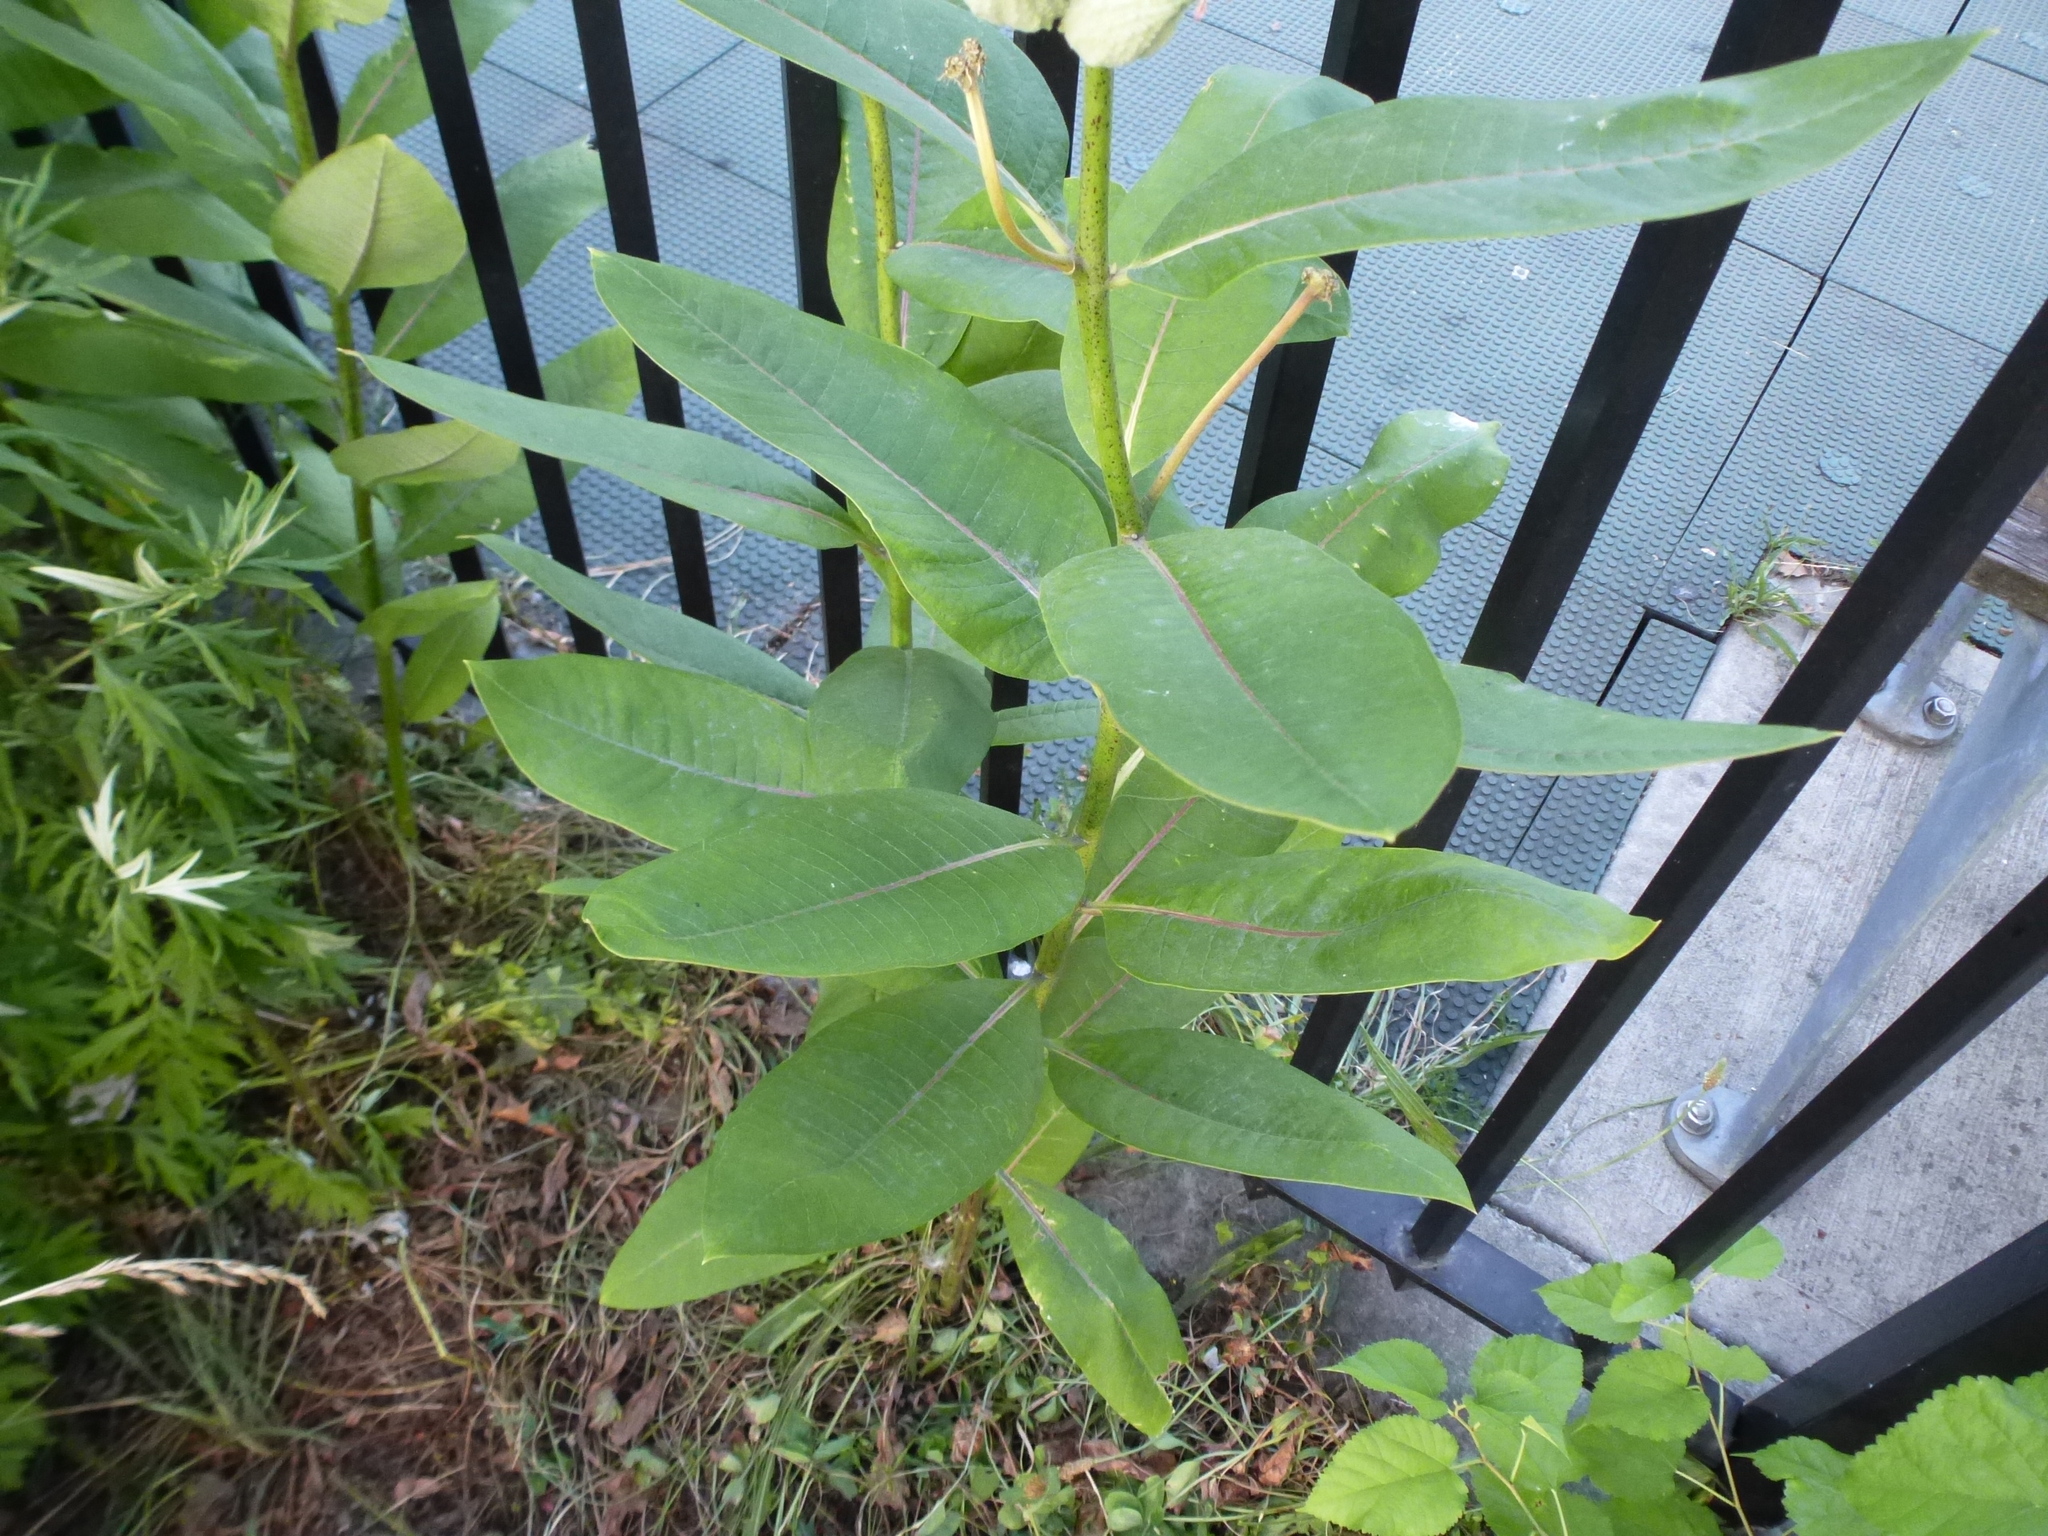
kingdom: Plantae
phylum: Tracheophyta
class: Magnoliopsida
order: Gentianales
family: Apocynaceae
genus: Asclepias
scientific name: Asclepias syriaca
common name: Common milkweed
